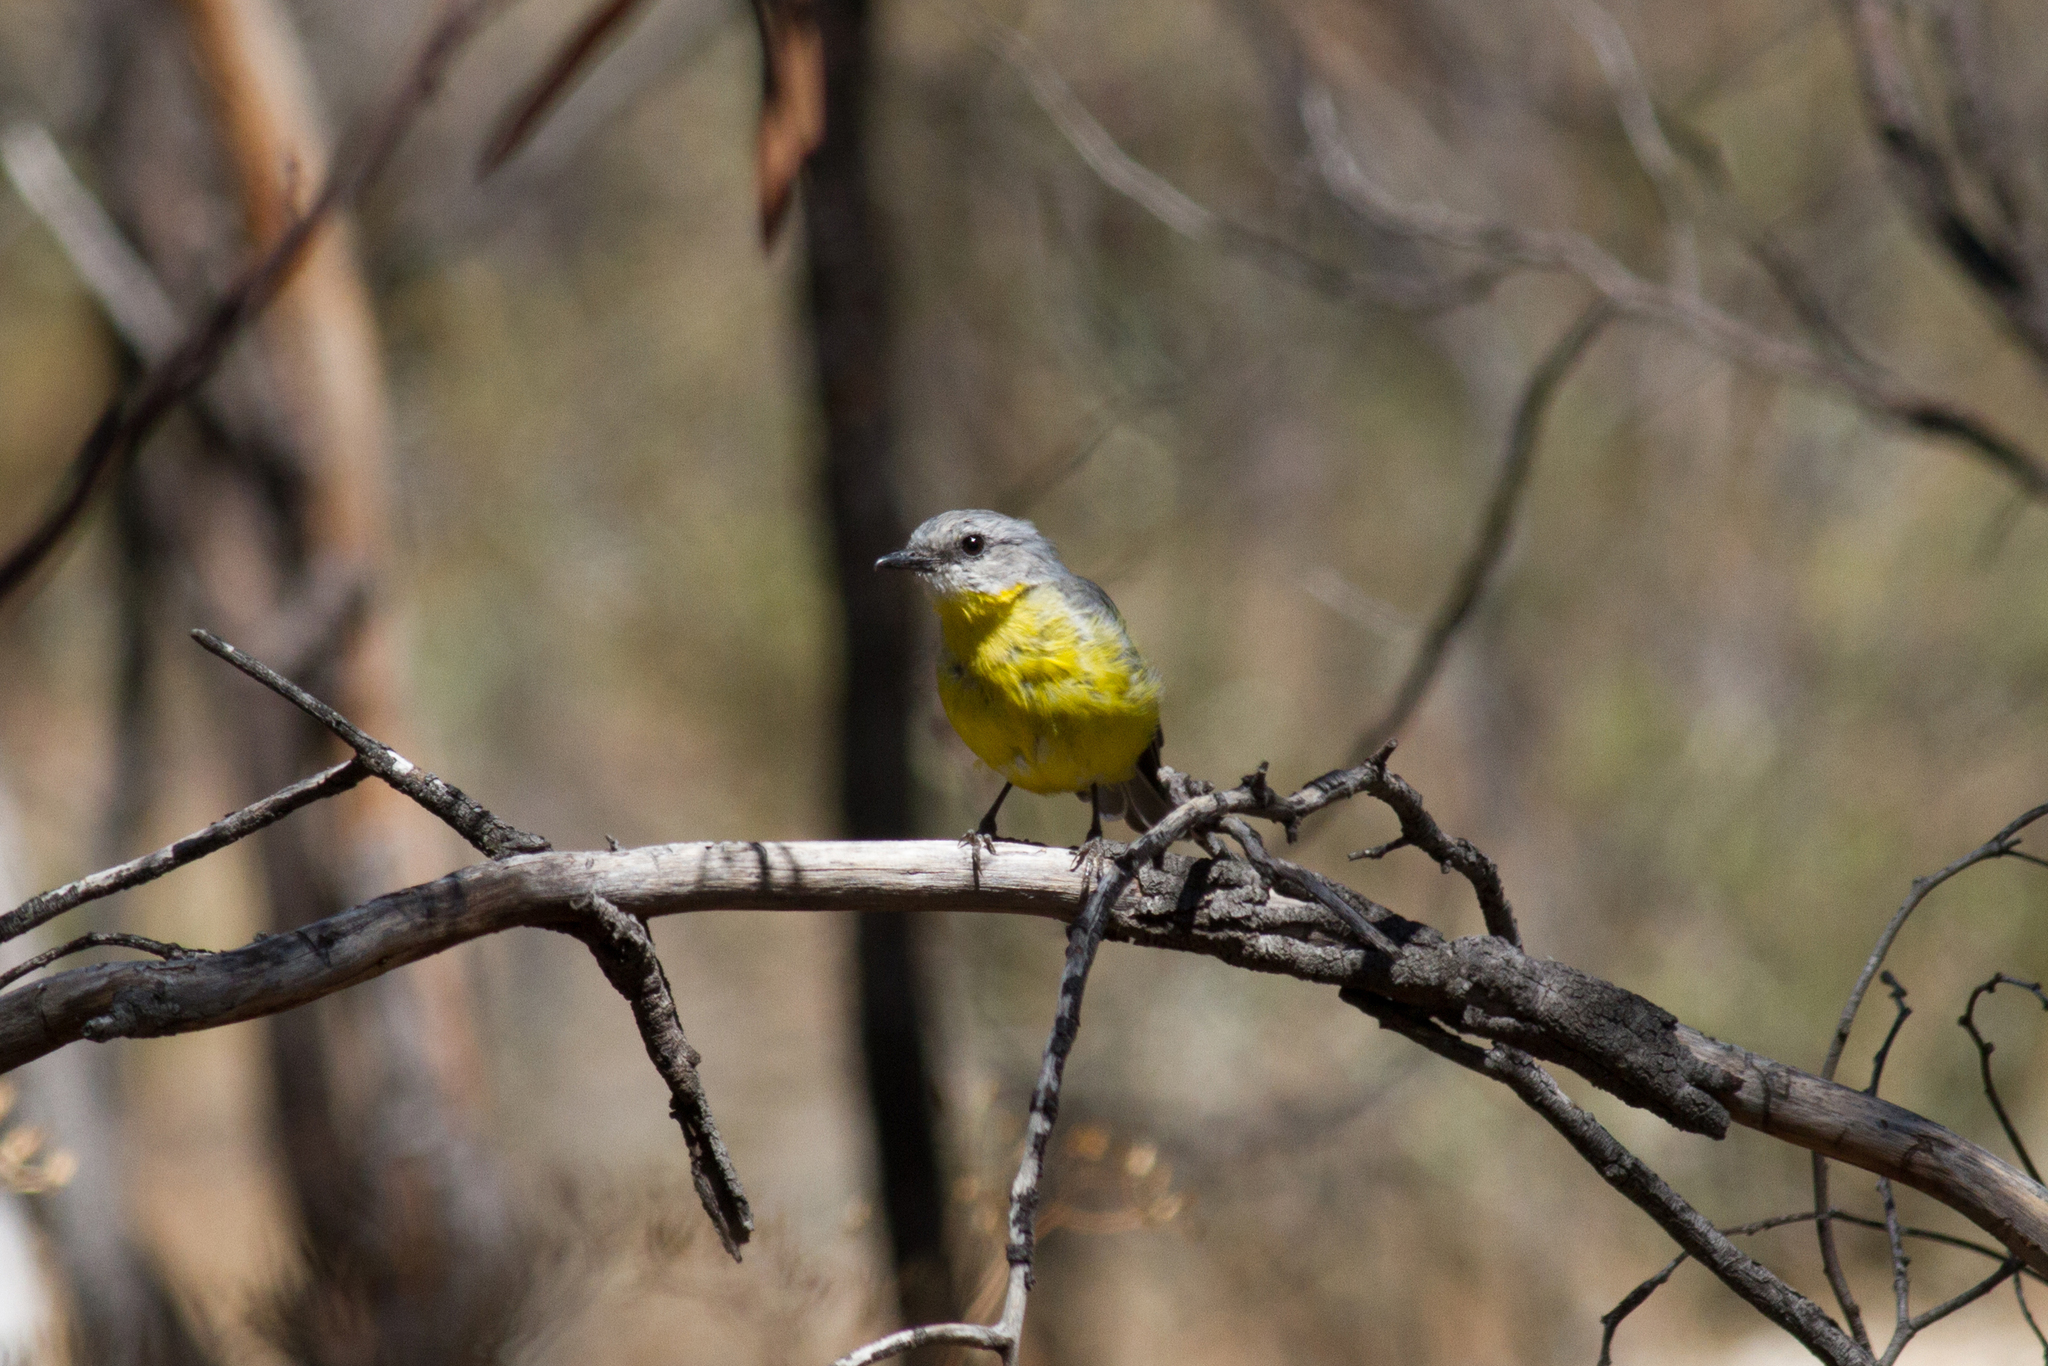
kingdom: Animalia
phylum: Chordata
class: Aves
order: Passeriformes
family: Petroicidae
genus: Eopsaltria
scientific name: Eopsaltria australis
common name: Eastern yellow robin
